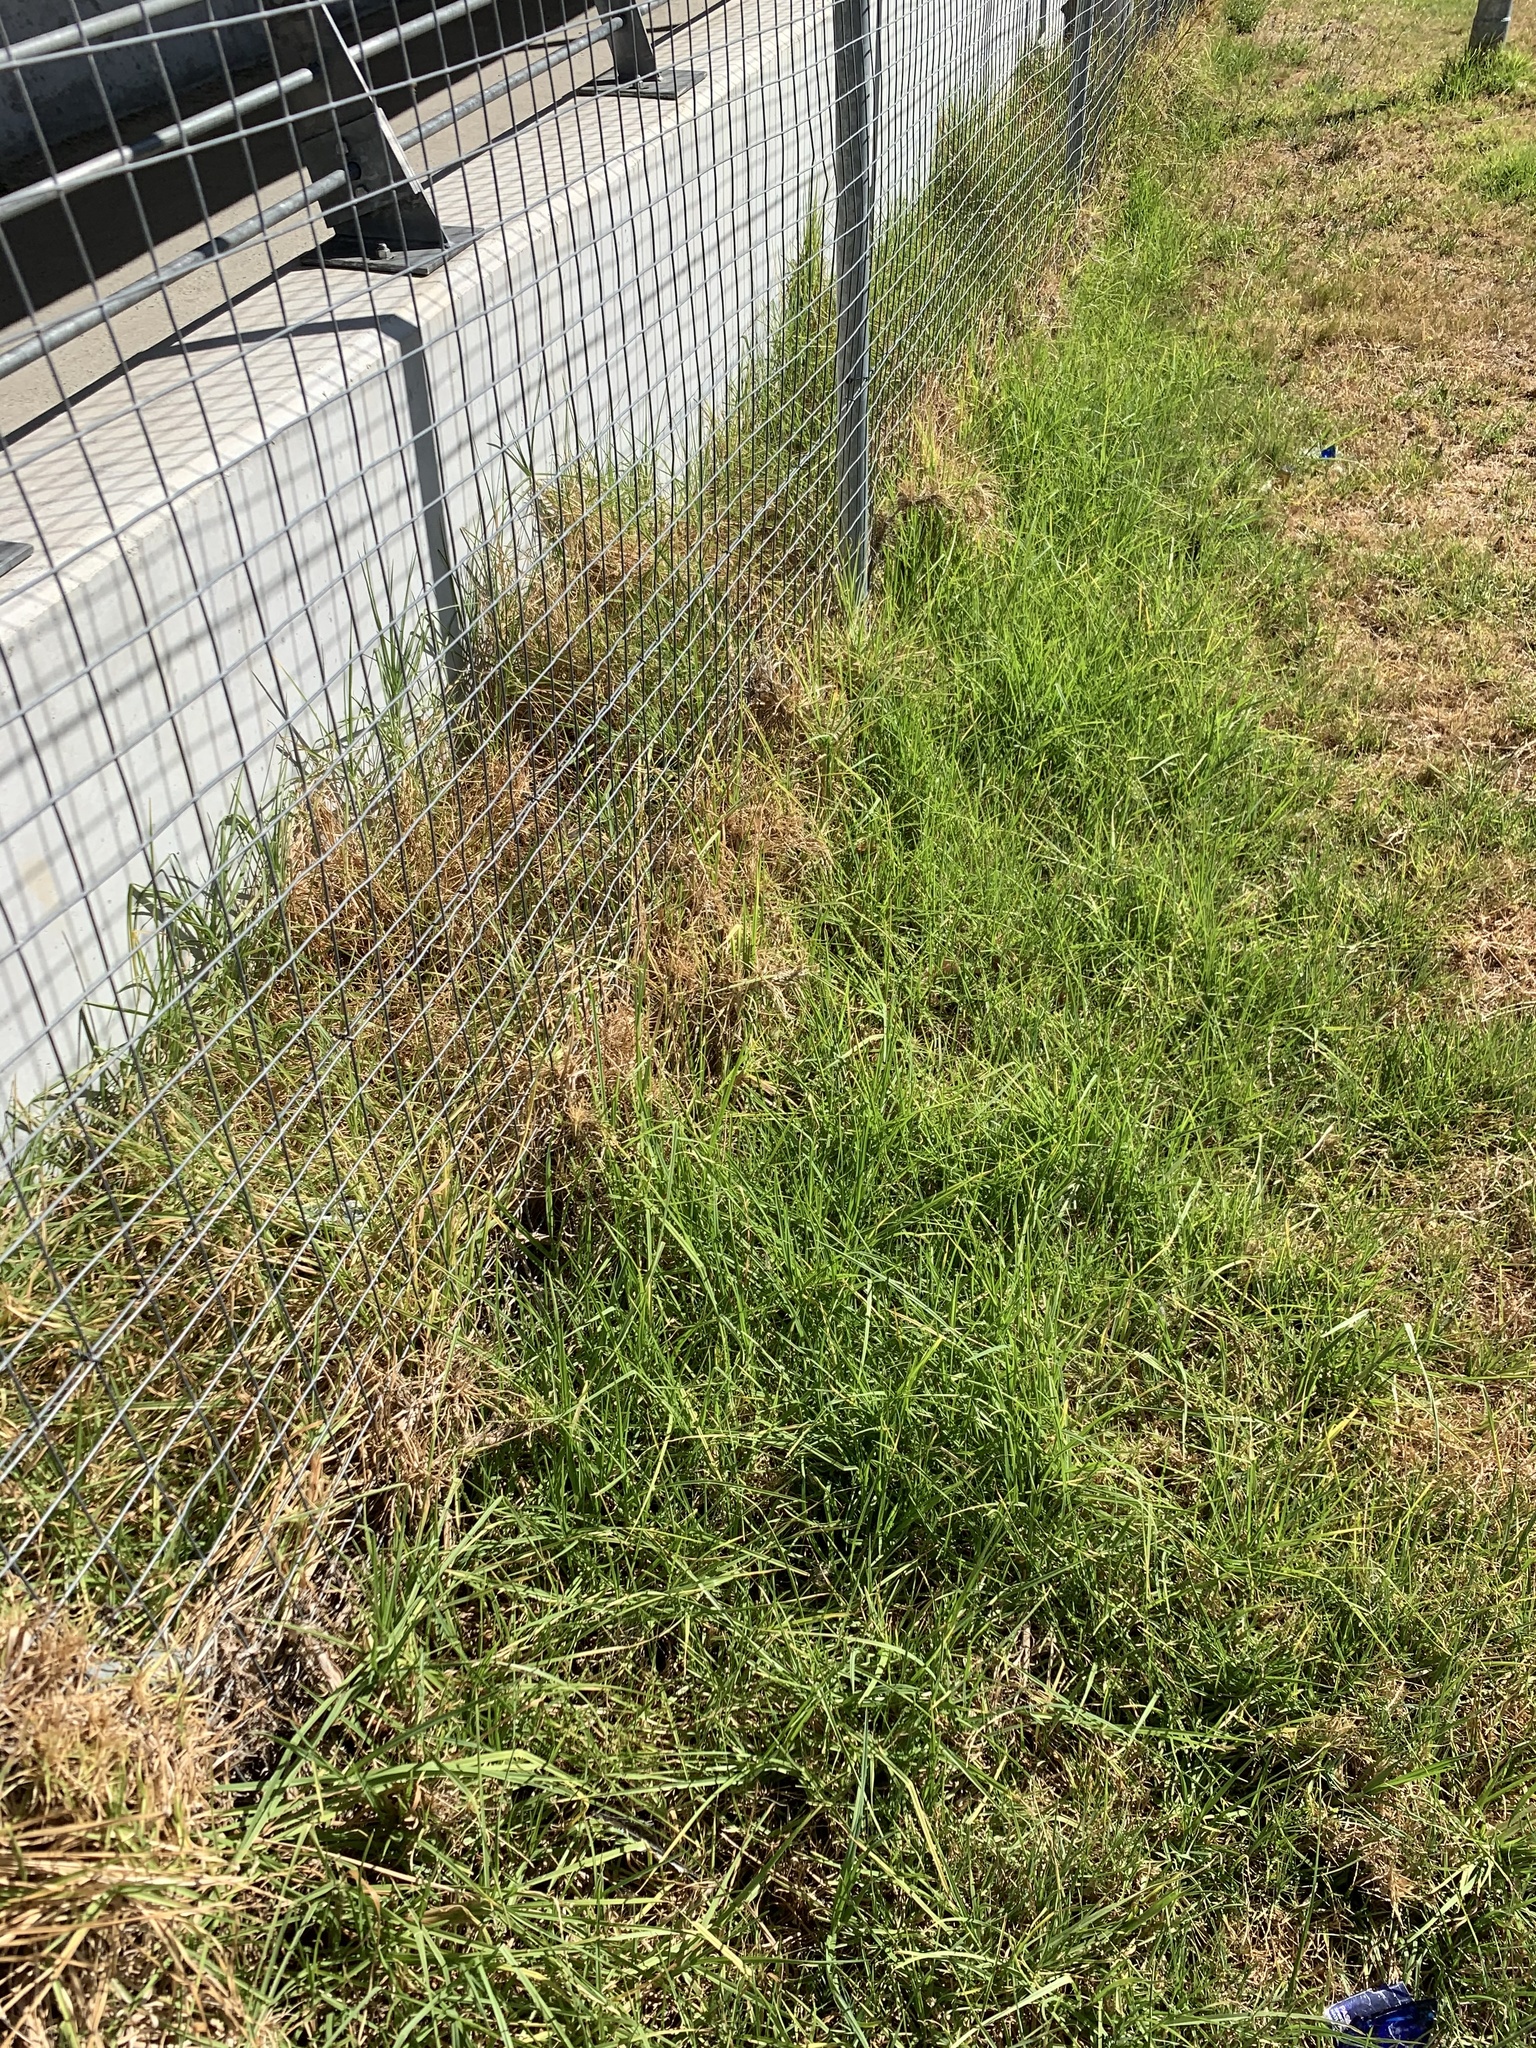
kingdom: Plantae
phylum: Tracheophyta
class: Liliopsida
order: Poales
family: Poaceae
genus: Cenchrus
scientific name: Cenchrus clandestinus
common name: Kikuyugrass
